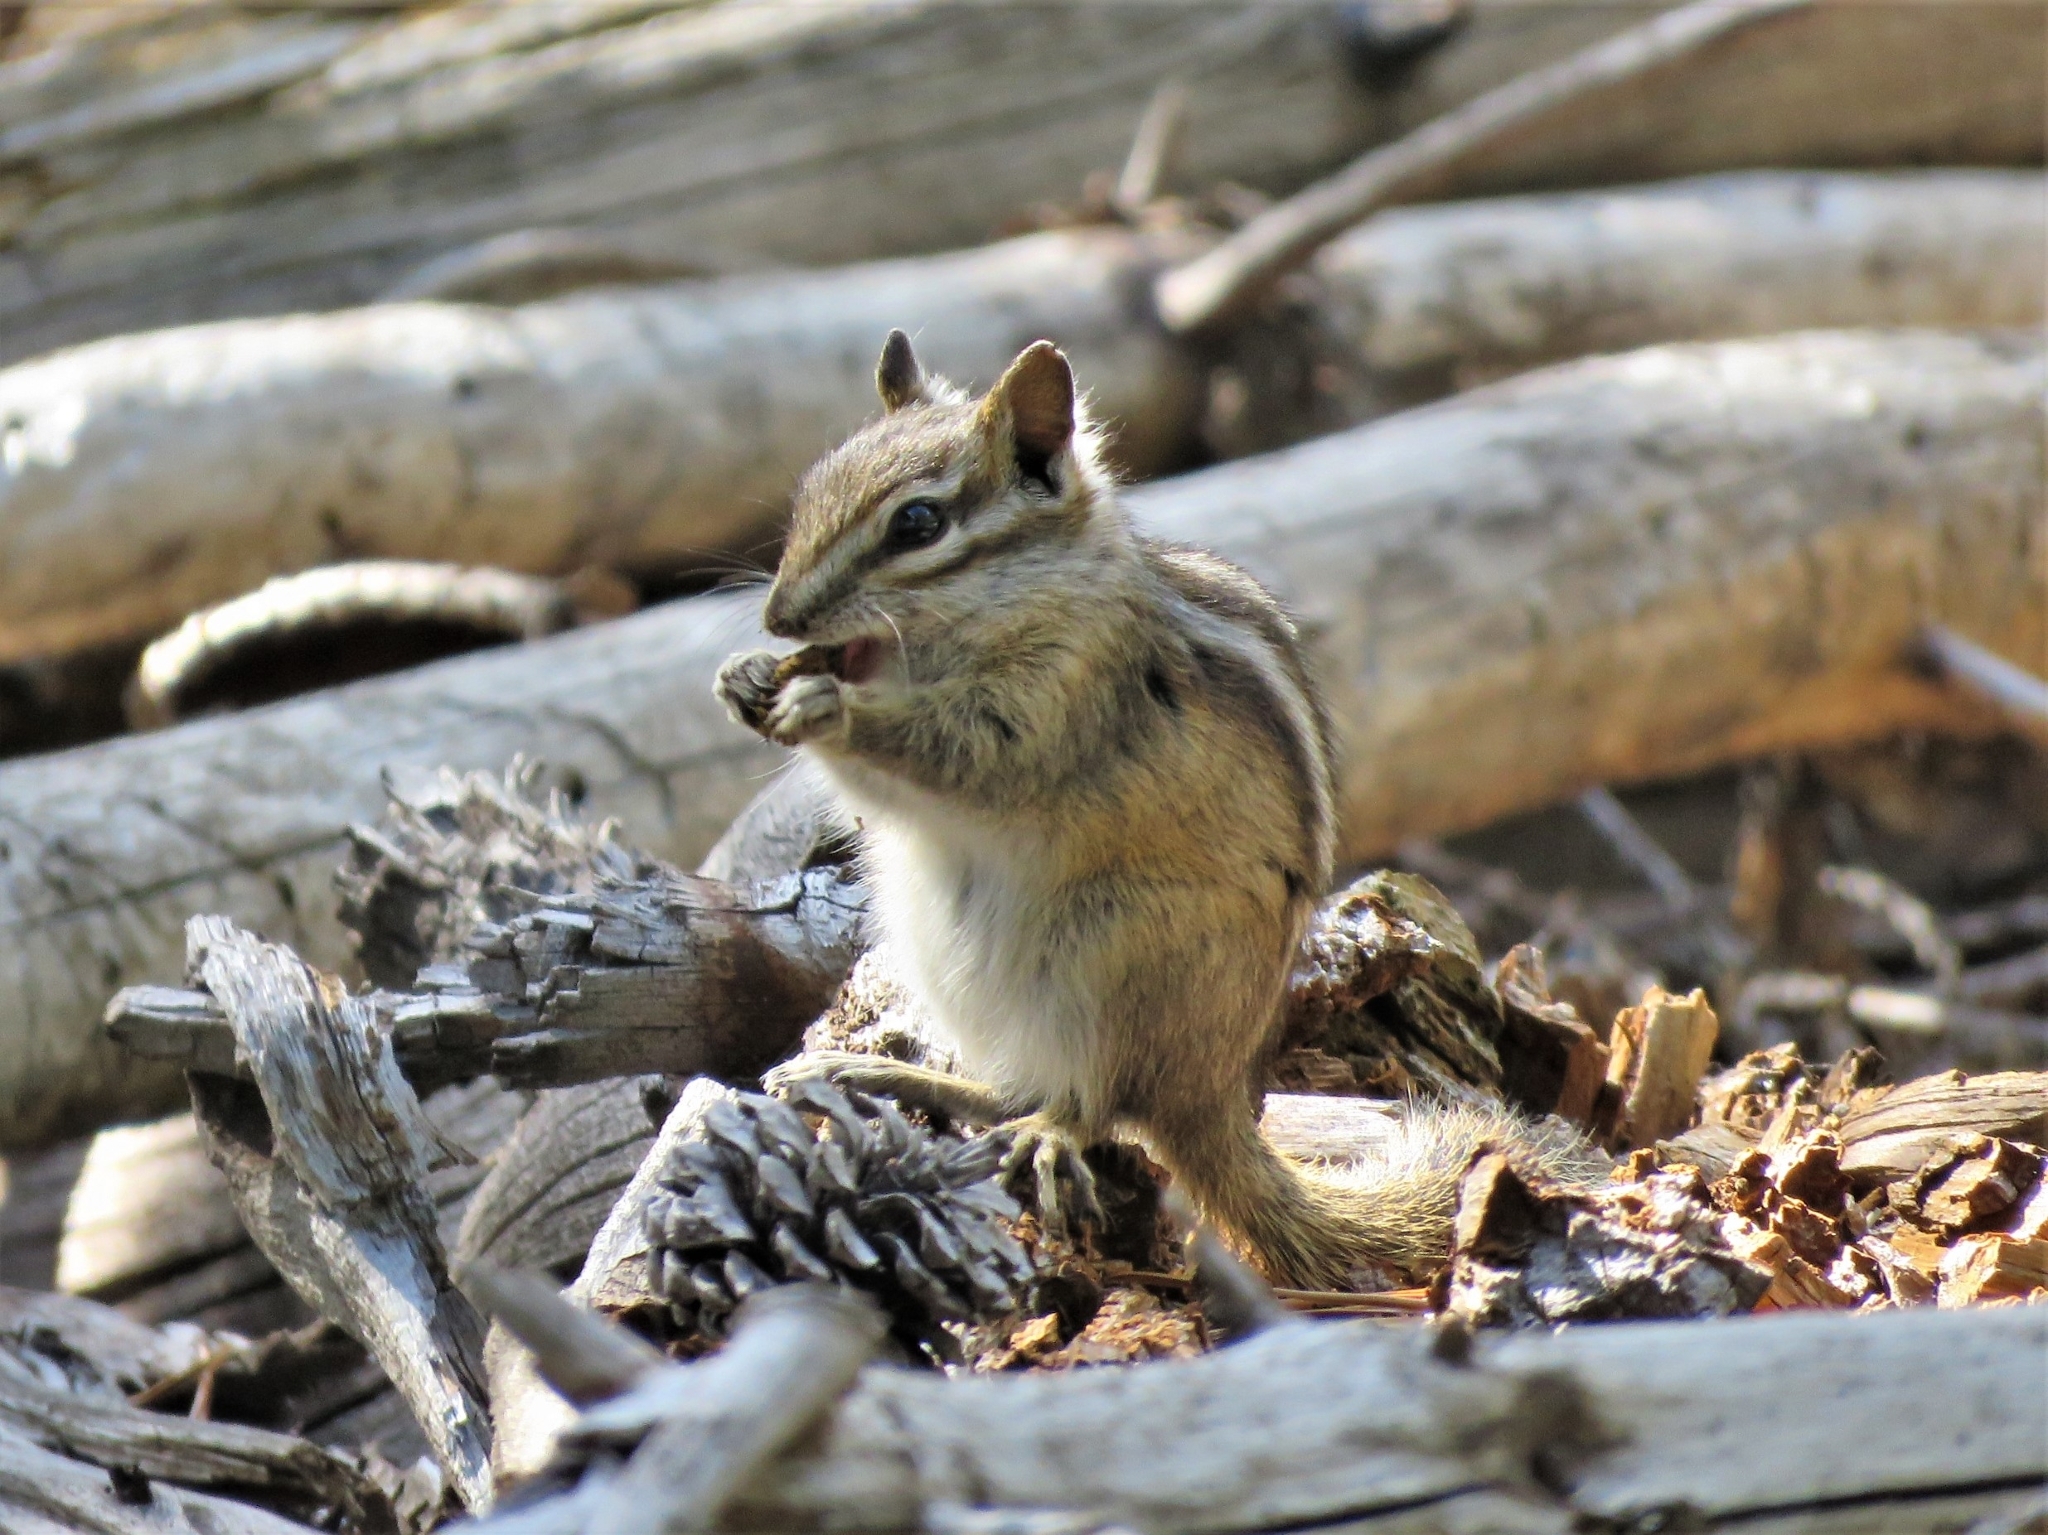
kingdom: Animalia
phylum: Chordata
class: Mammalia
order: Rodentia
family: Sciuridae
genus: Tamias
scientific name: Tamias minimus
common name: Least chipmunk
